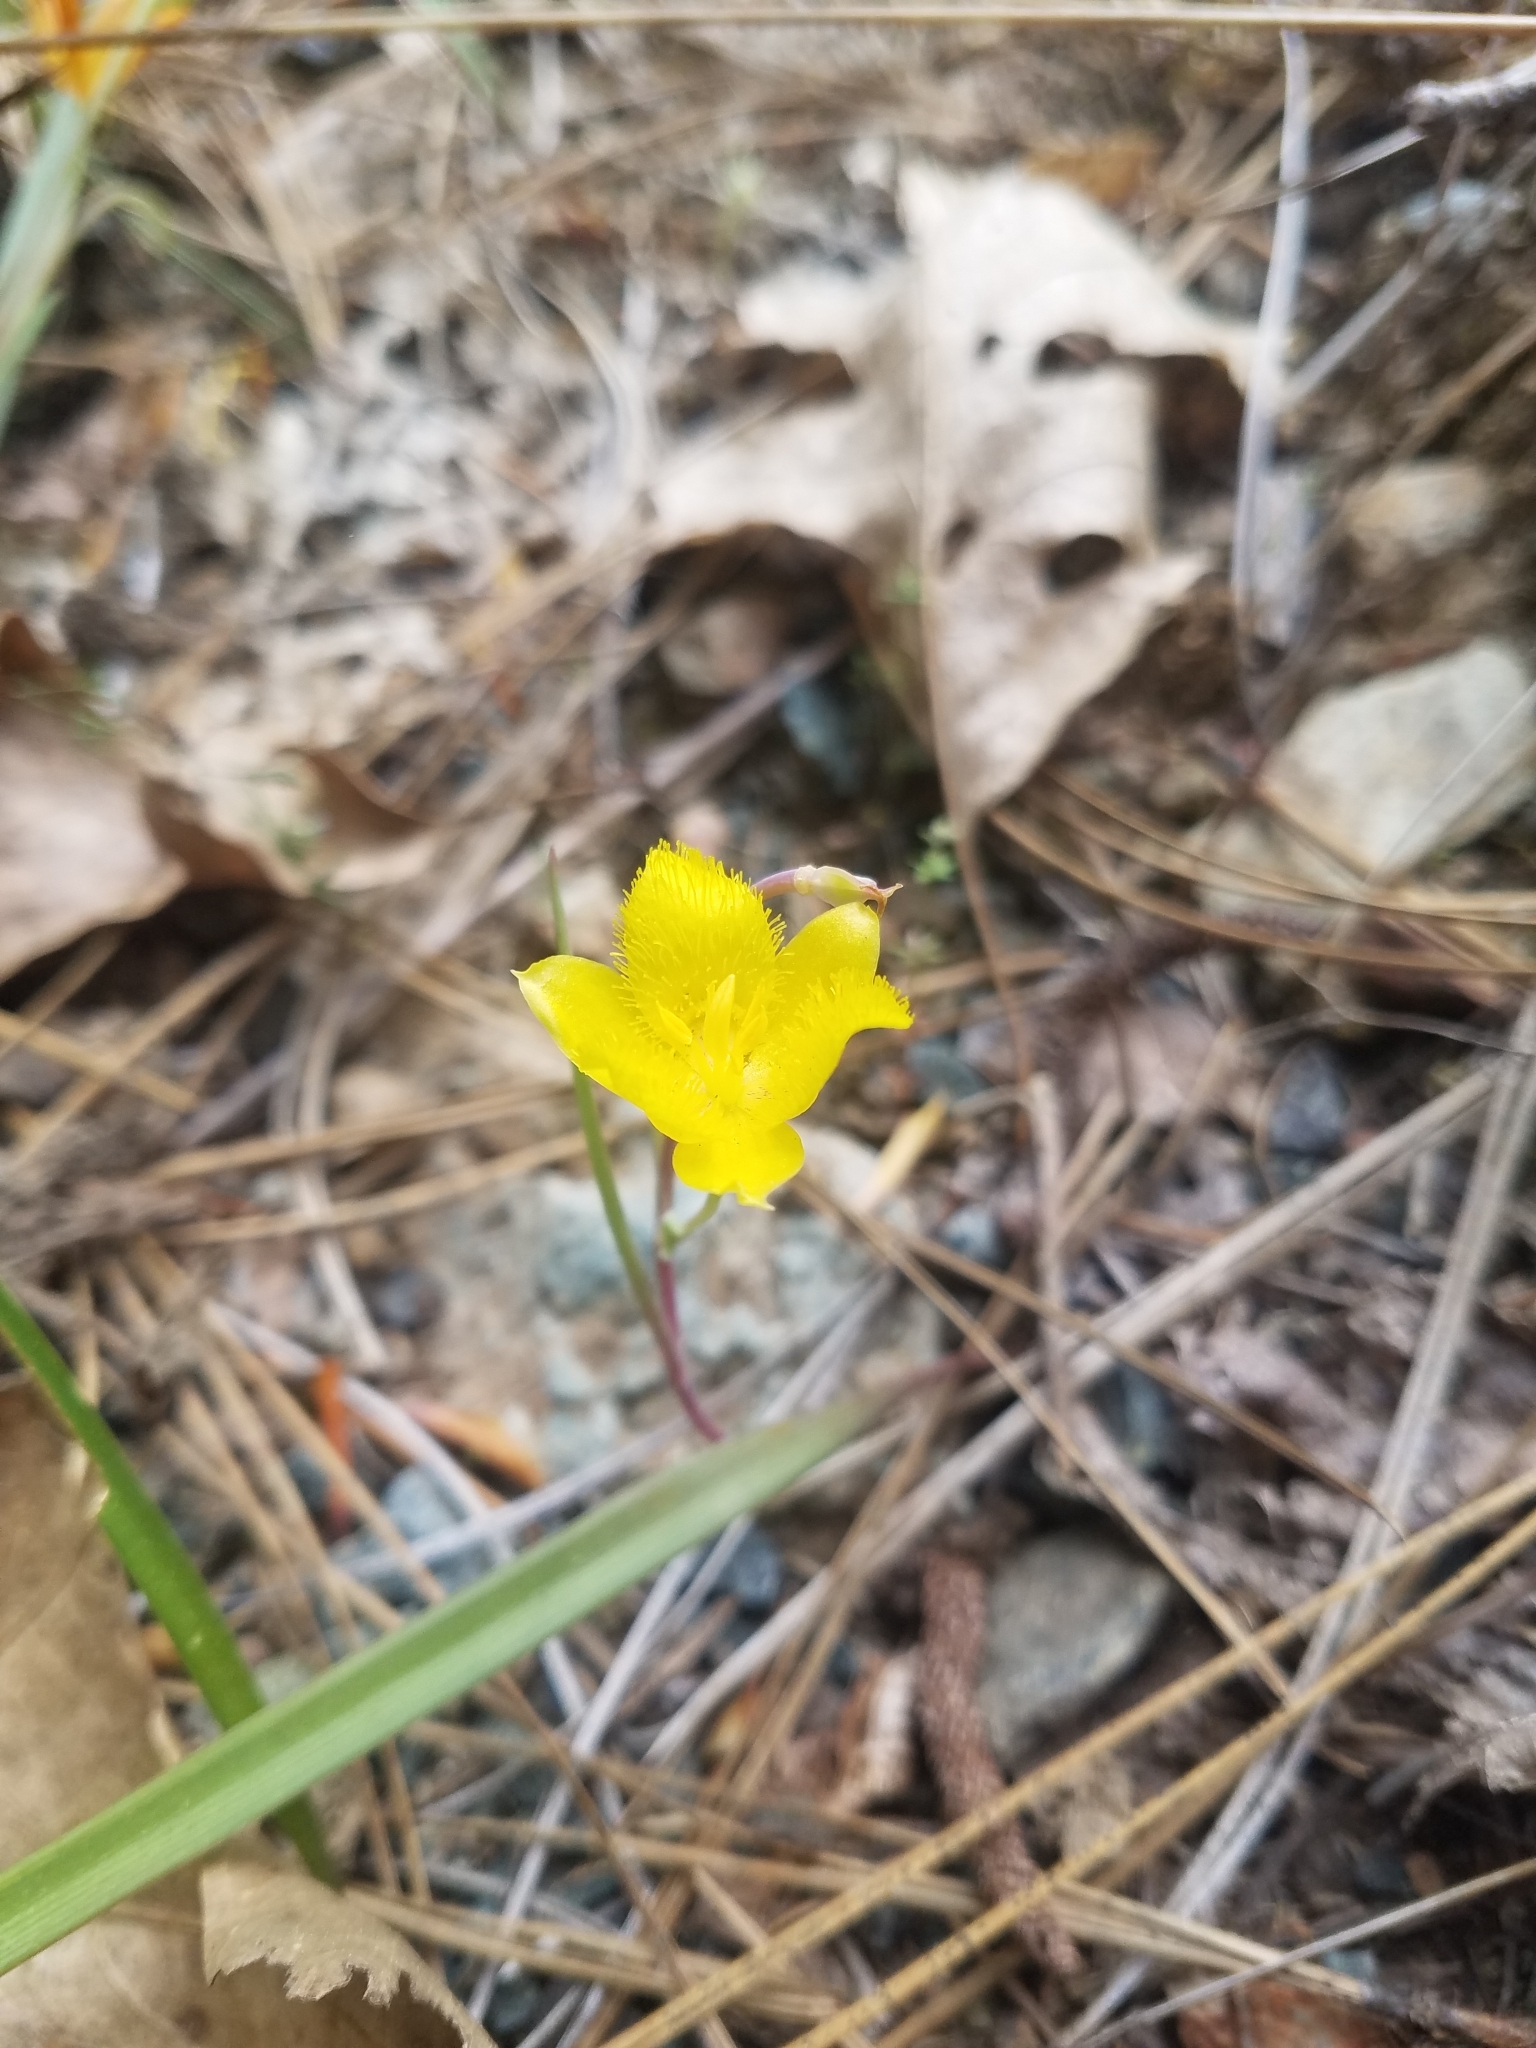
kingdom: Plantae
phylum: Tracheophyta
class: Liliopsida
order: Liliales
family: Liliaceae
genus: Calochortus
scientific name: Calochortus monophyllus
